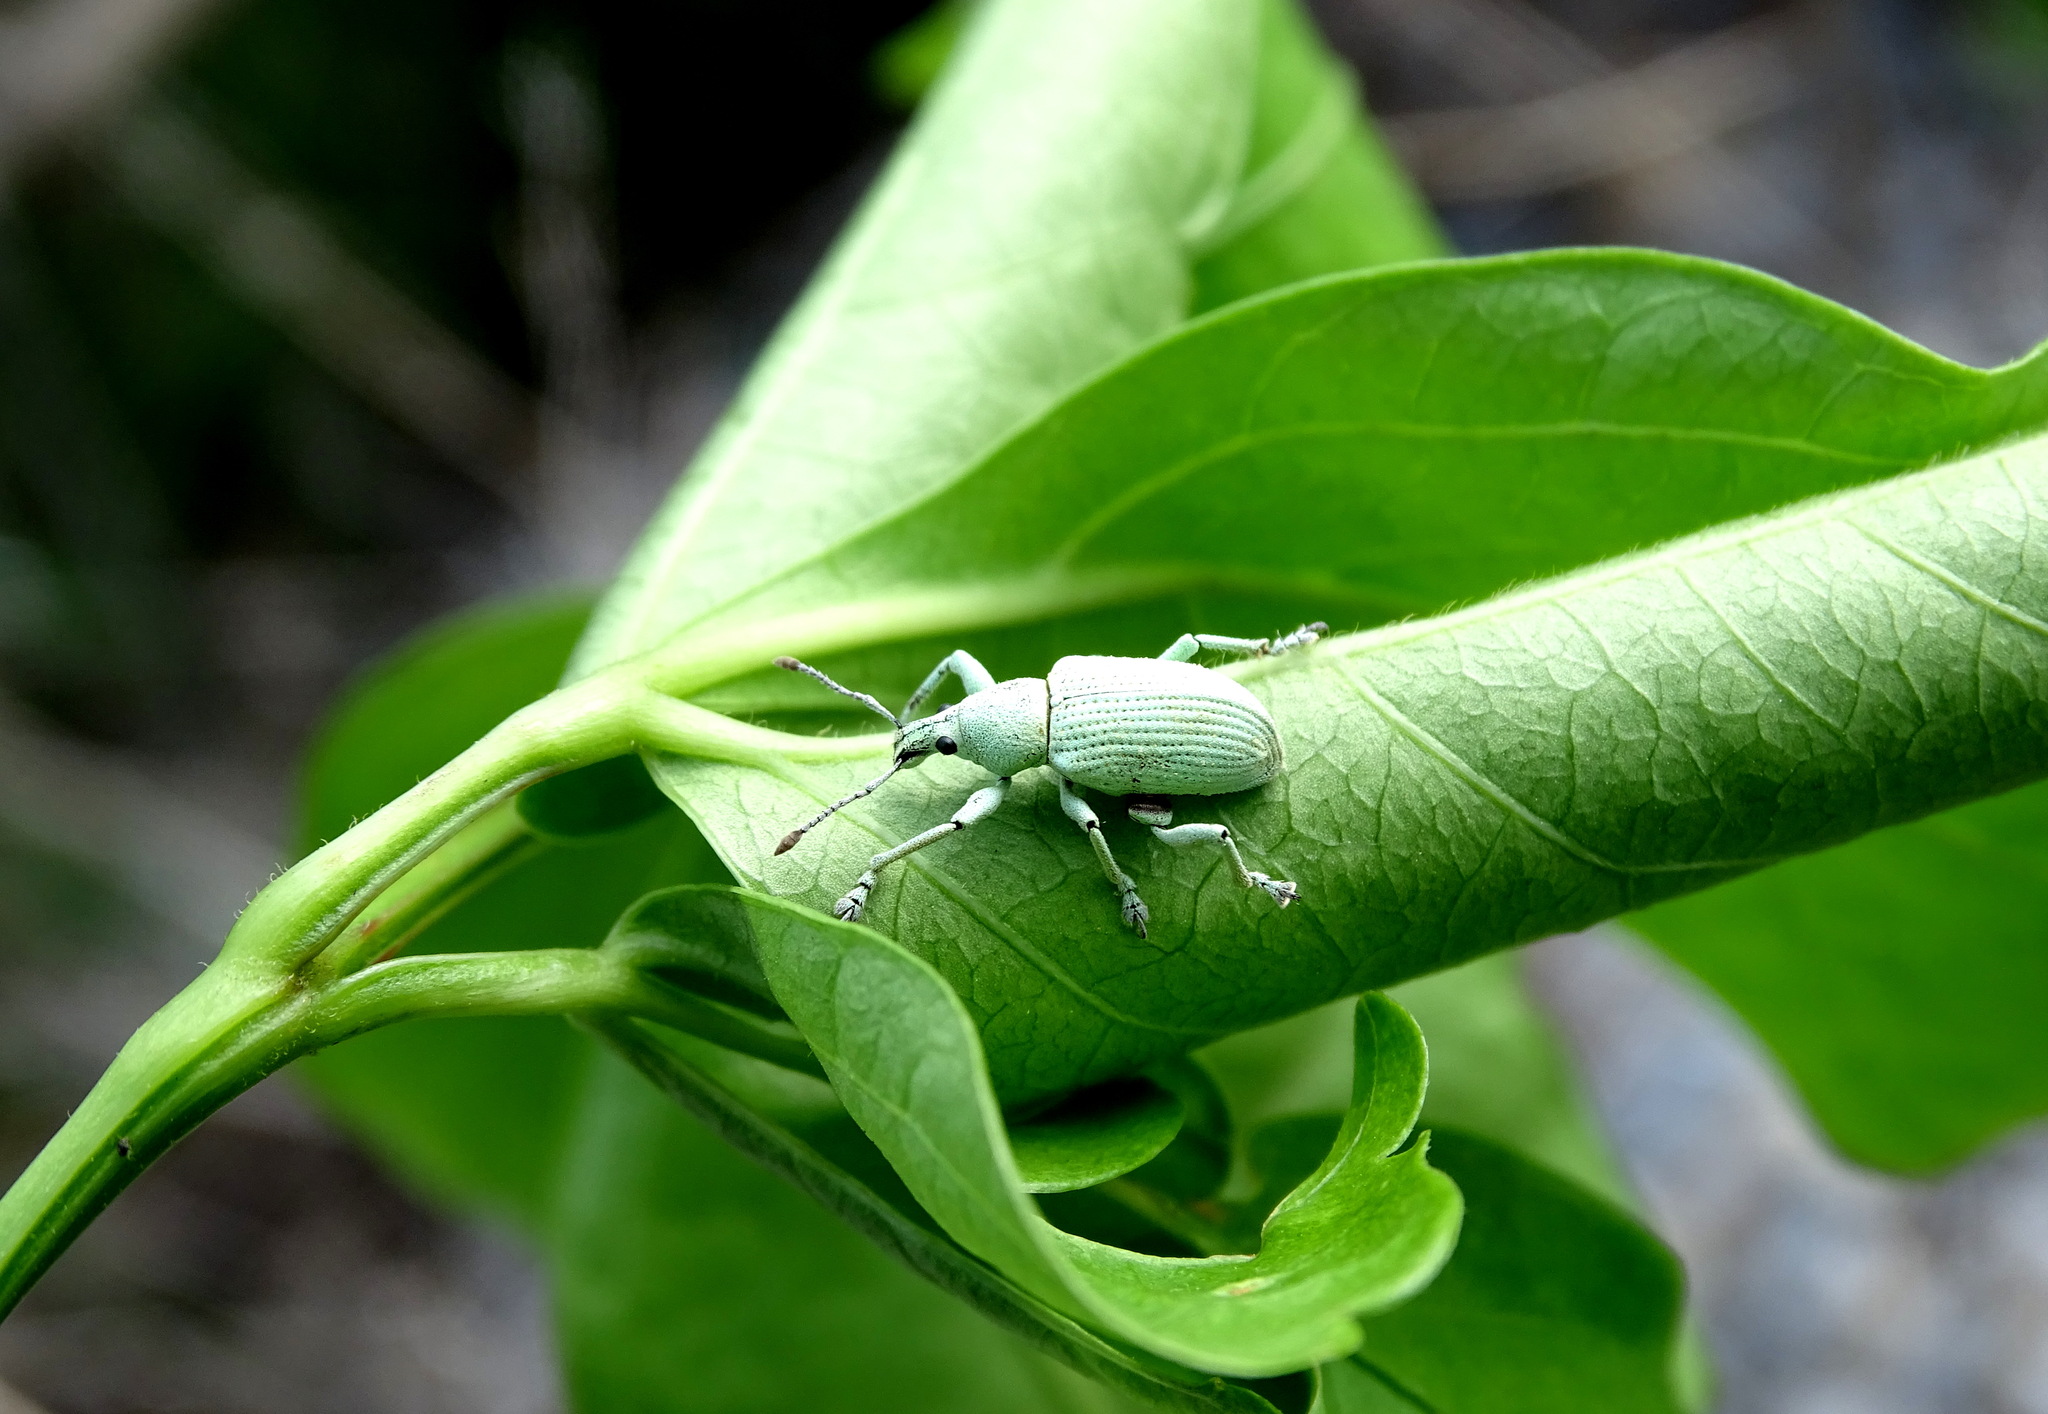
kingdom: Animalia
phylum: Arthropoda
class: Insecta
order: Coleoptera
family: Curculionidae
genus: Exophthalmus
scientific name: Exophthalmus verecundus
